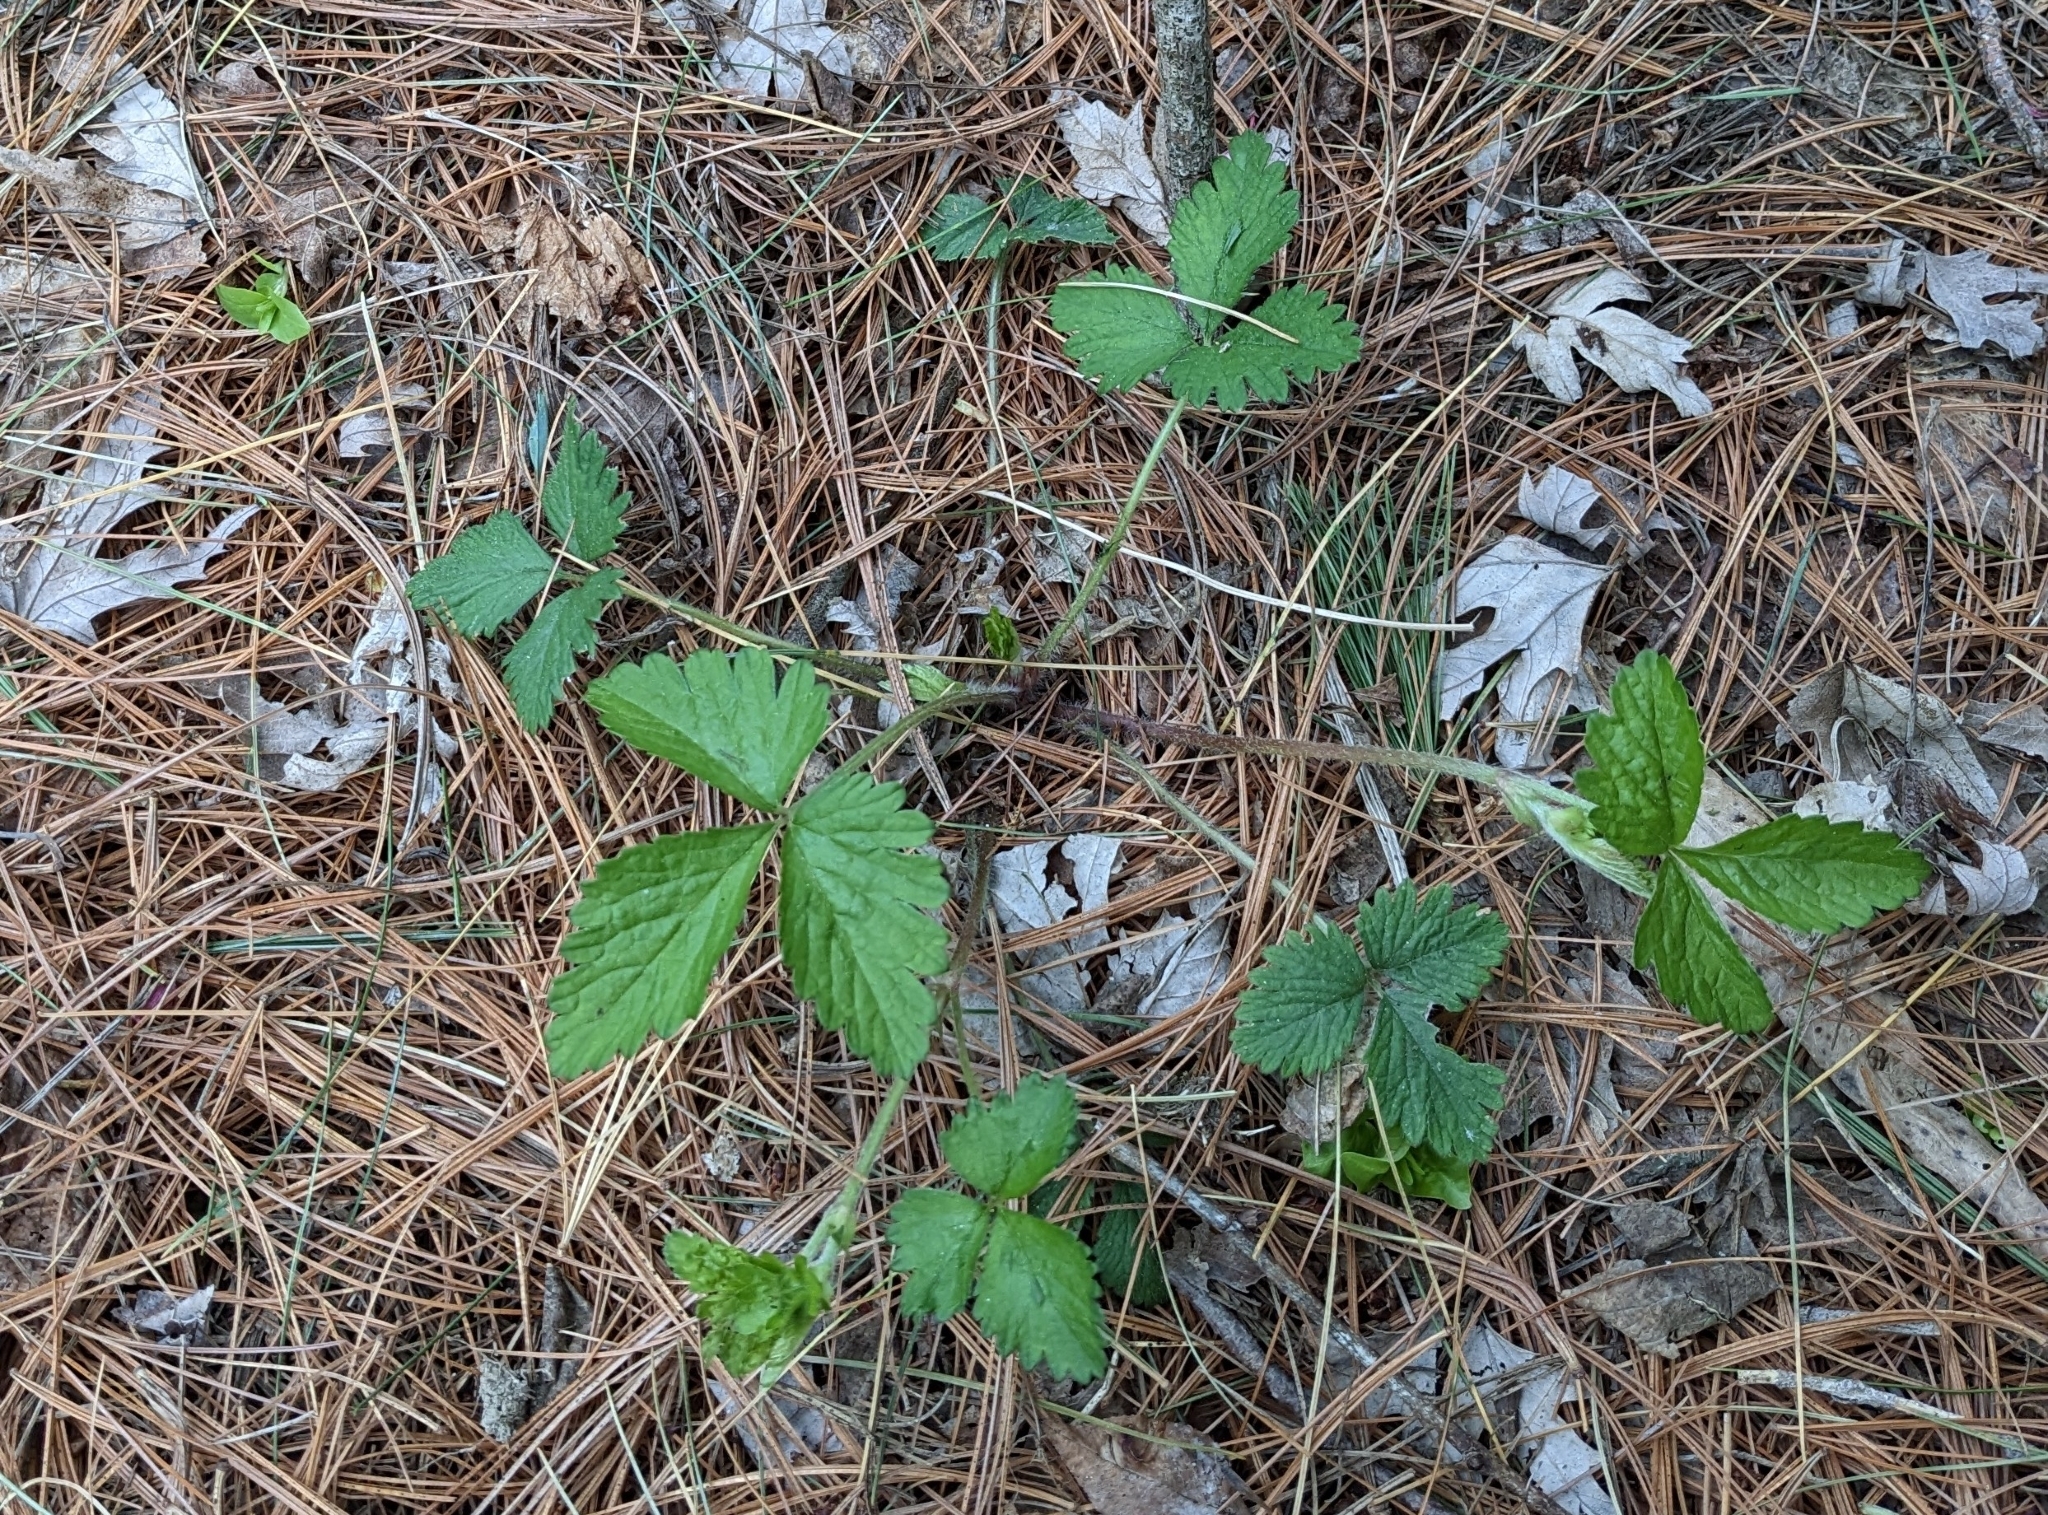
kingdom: Plantae
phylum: Tracheophyta
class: Magnoliopsida
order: Rosales
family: Rosaceae
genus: Potentilla
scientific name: Potentilla indica
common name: Yellow-flowered strawberry
